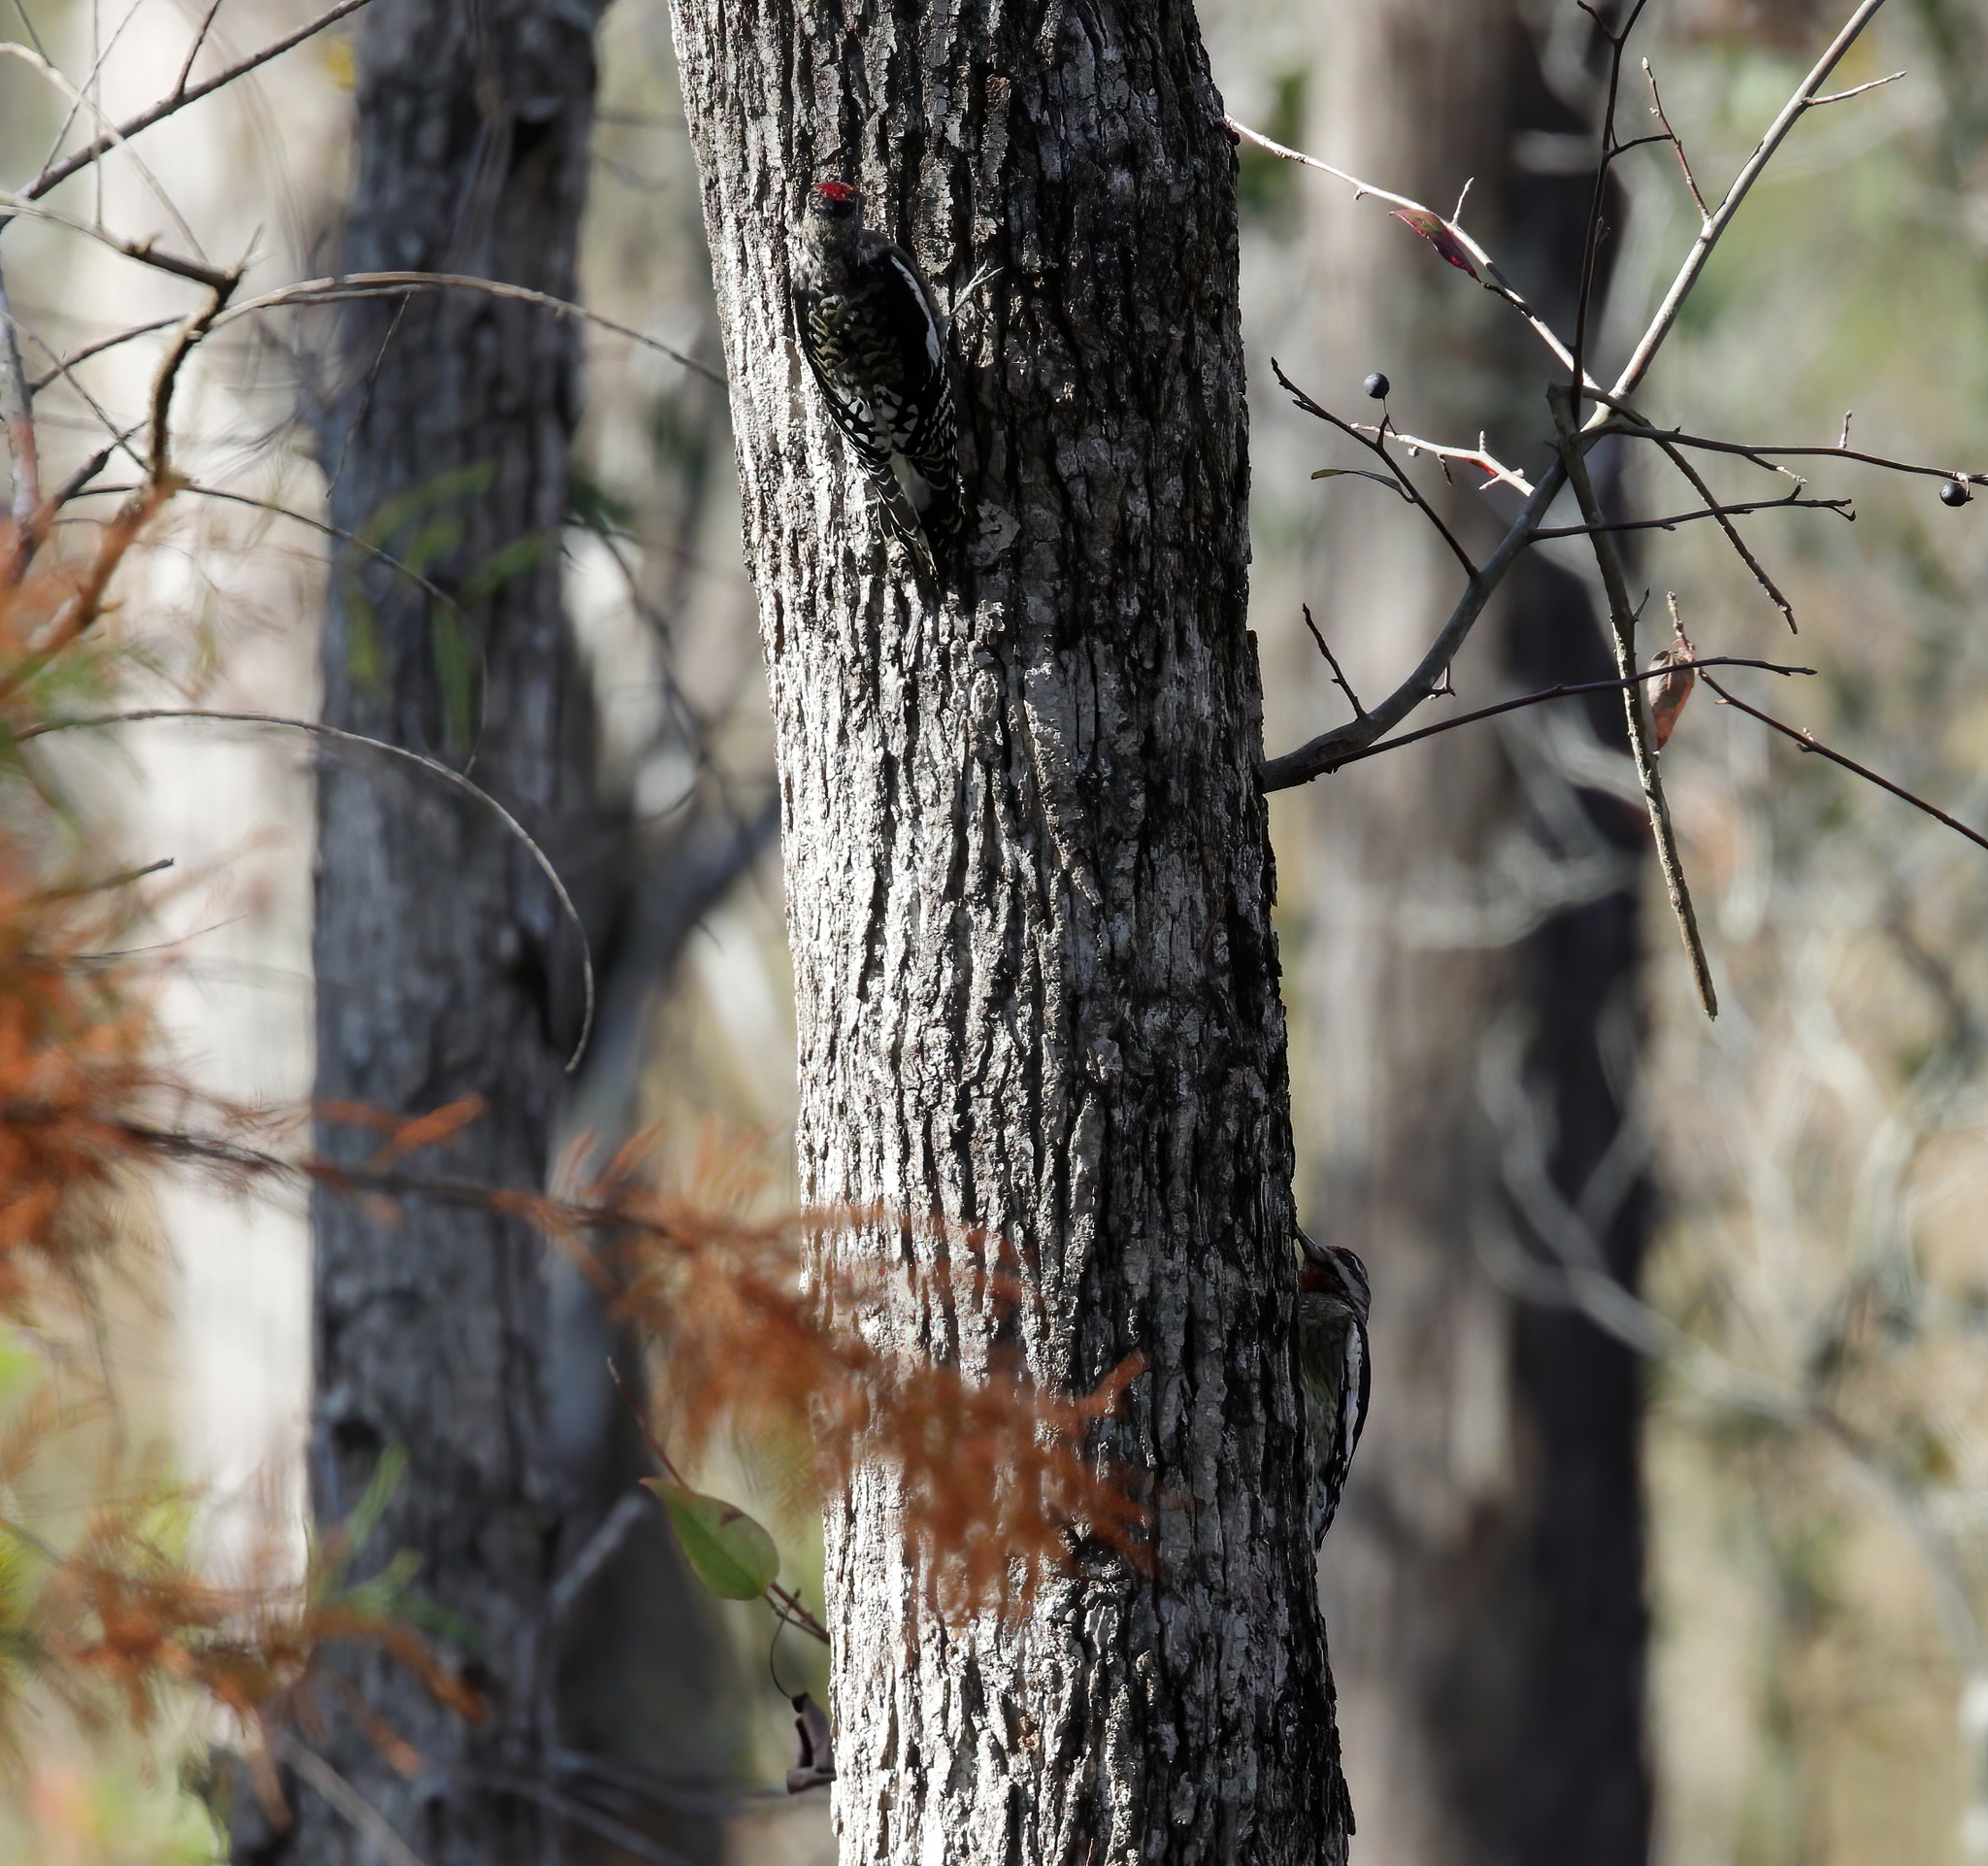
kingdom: Animalia
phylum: Chordata
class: Aves
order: Piciformes
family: Picidae
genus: Sphyrapicus
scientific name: Sphyrapicus varius
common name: Yellow-bellied sapsucker
